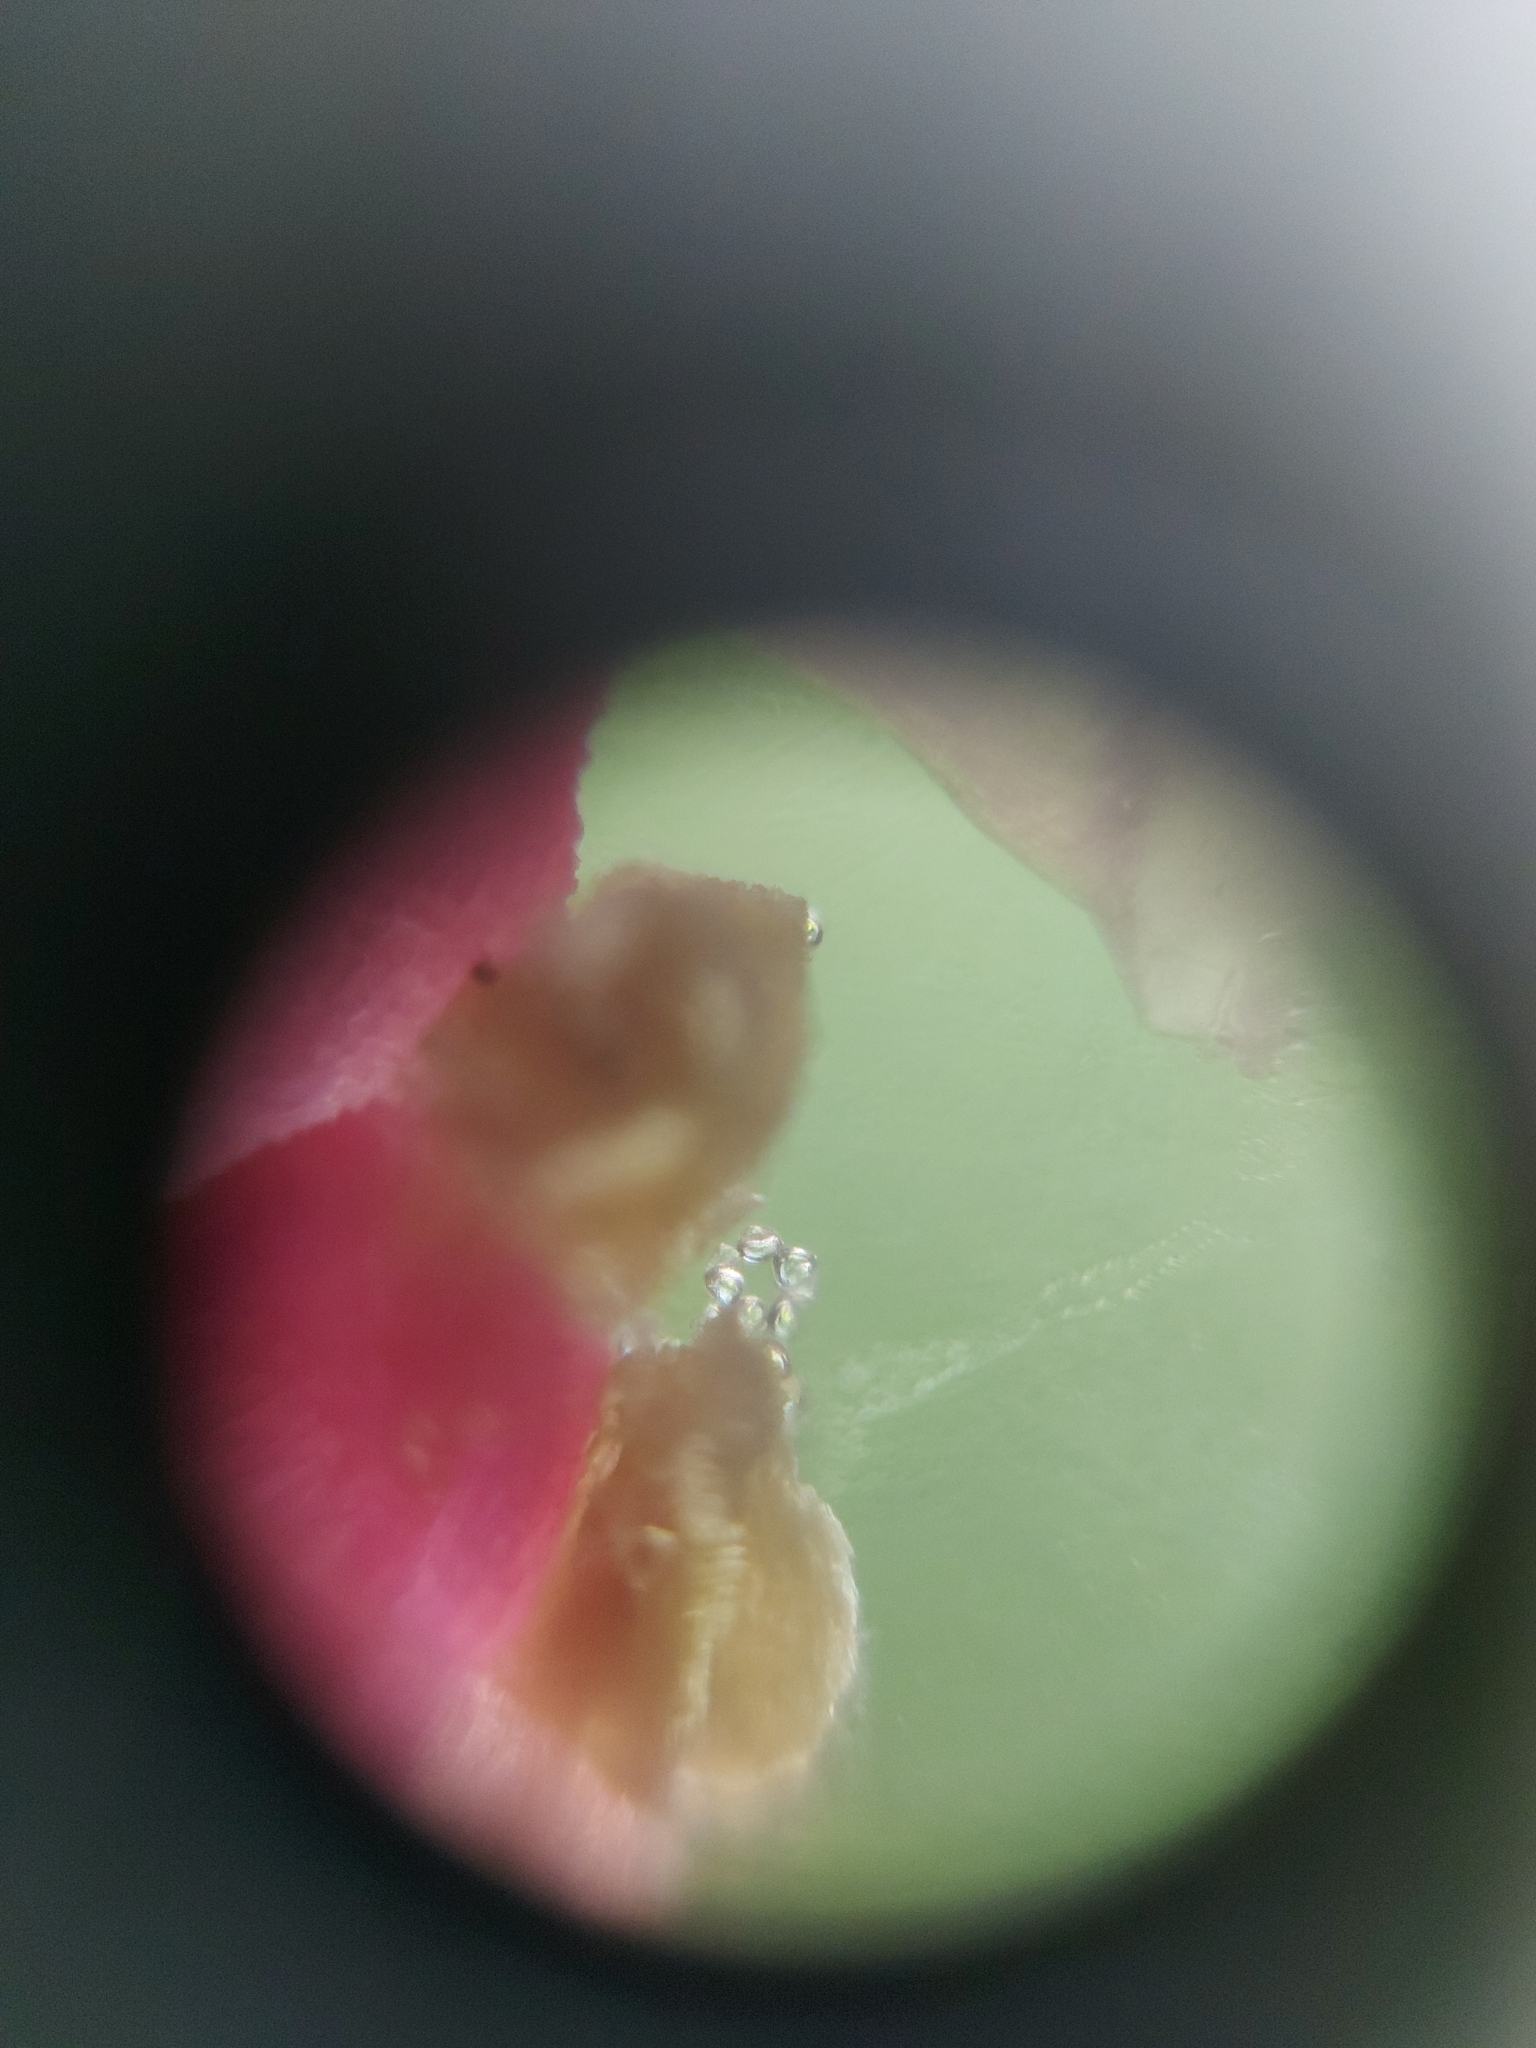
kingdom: Plantae
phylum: Tracheophyta
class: Magnoliopsida
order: Ericales
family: Symplocaceae
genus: Symplocos
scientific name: Symplocos coccinea
